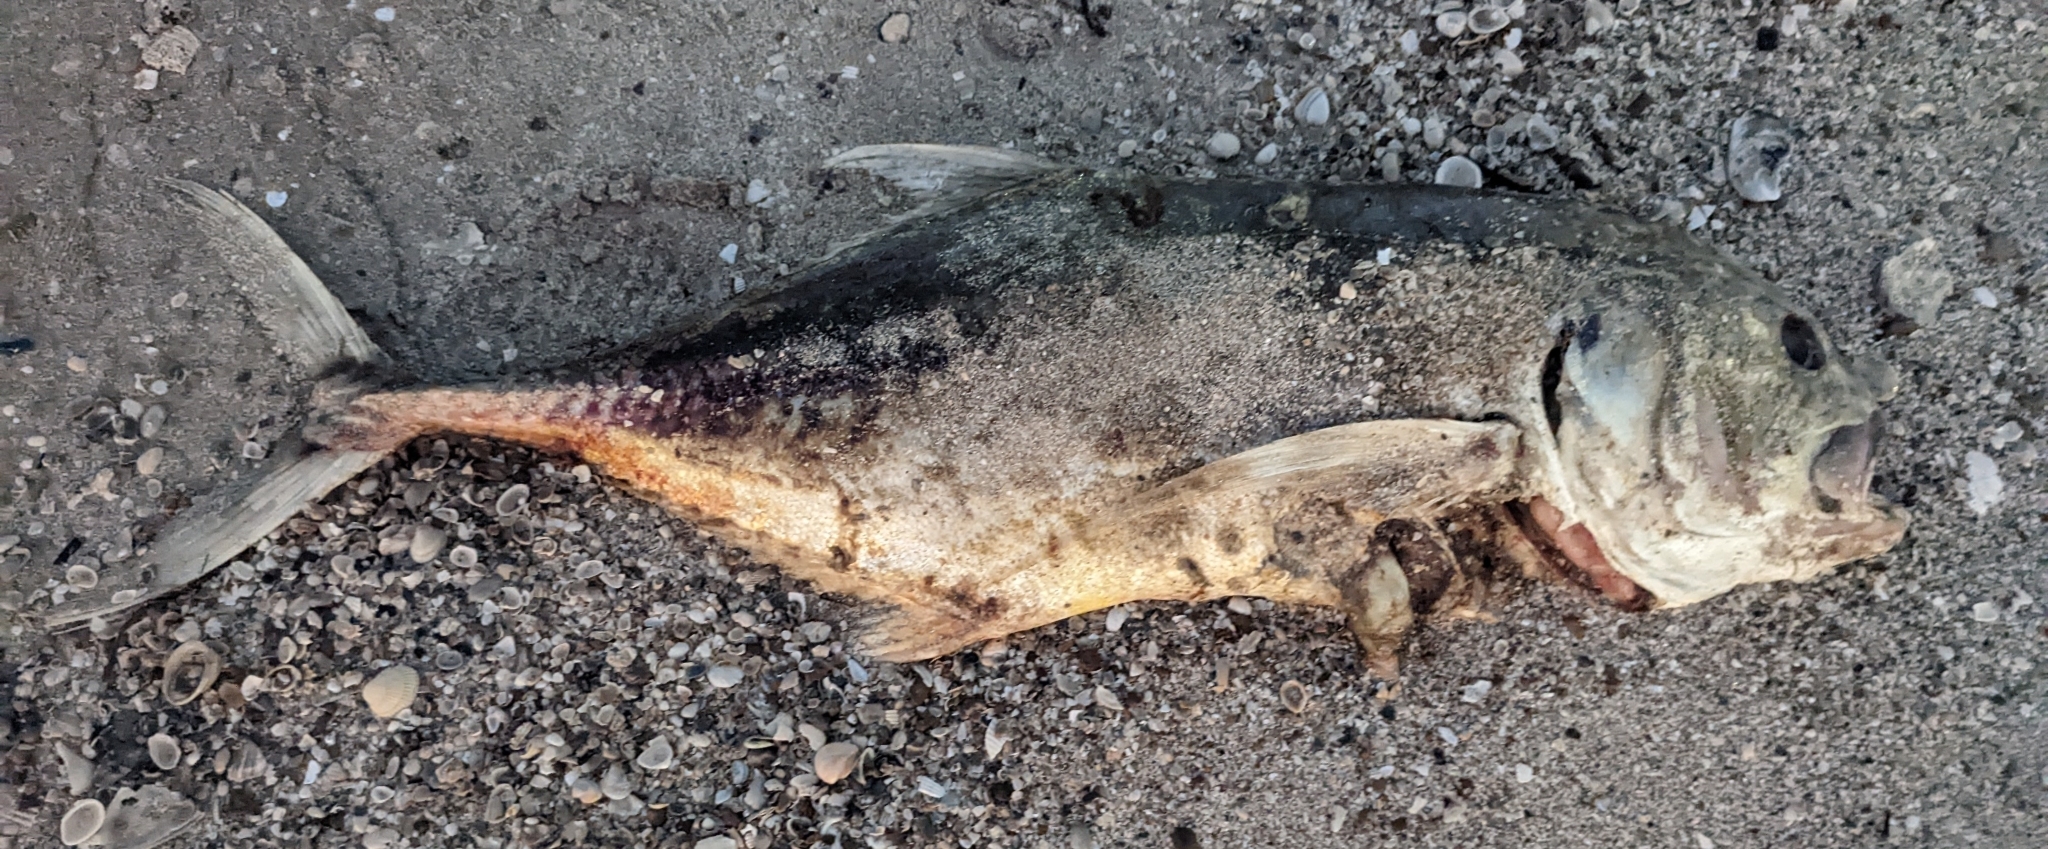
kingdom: Animalia
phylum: Chordata
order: Perciformes
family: Carangidae
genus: Caranx
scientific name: Caranx hippos
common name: Common jack
